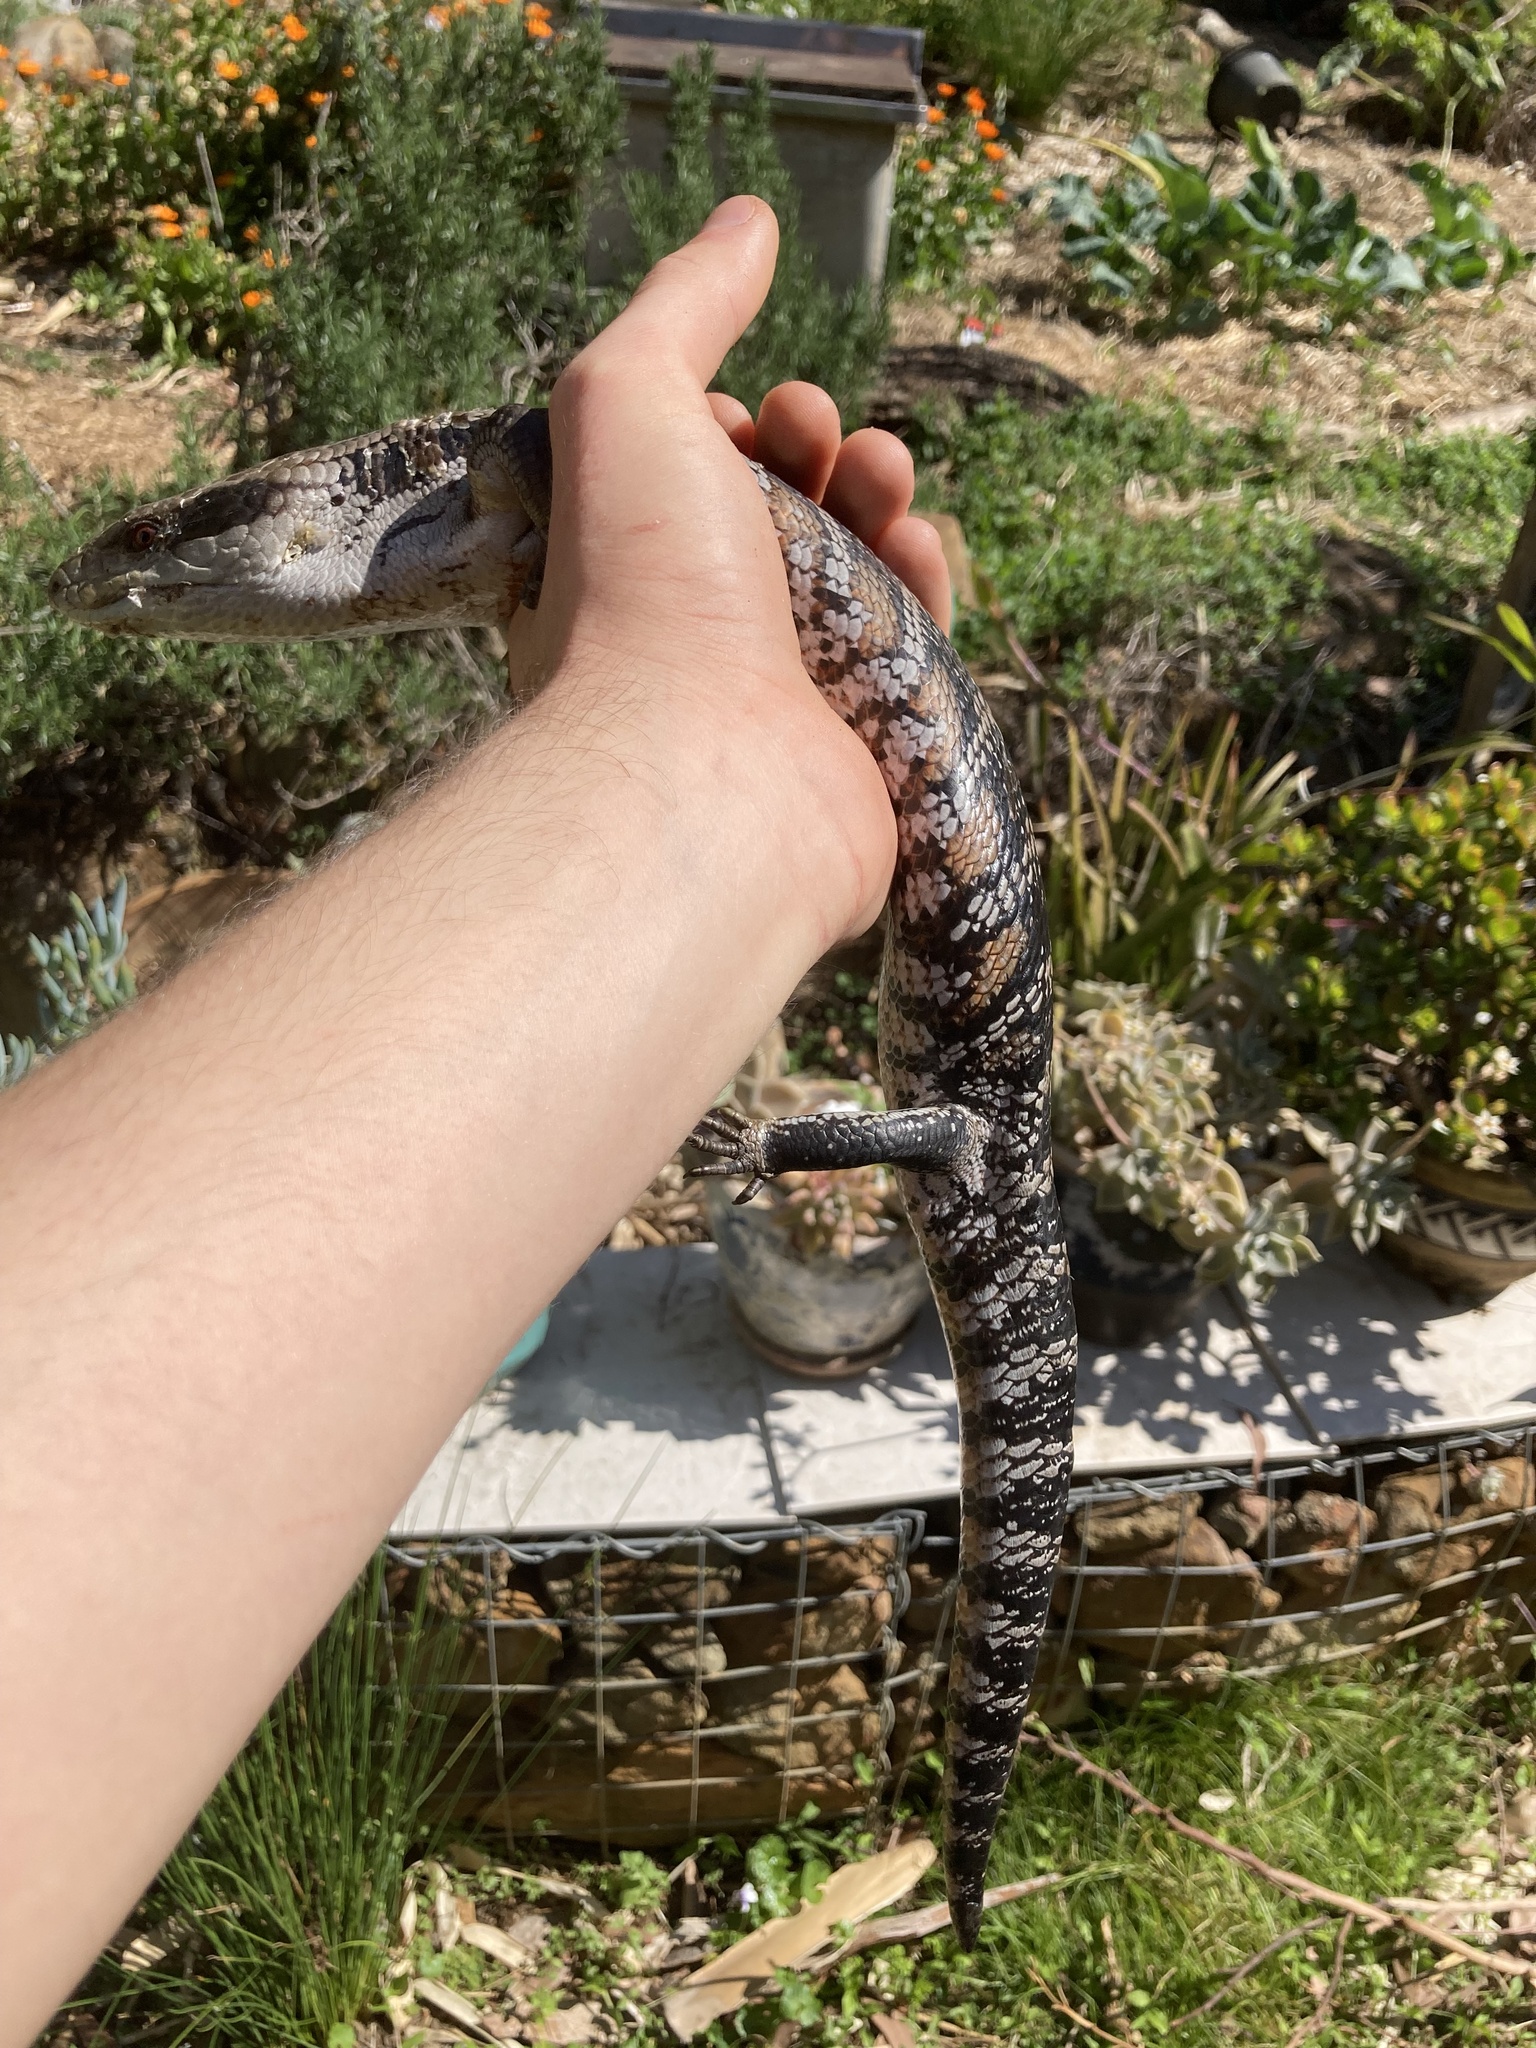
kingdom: Animalia
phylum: Chordata
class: Squamata
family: Scincidae
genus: Tiliqua
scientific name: Tiliqua scincoides
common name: Common bluetongue
